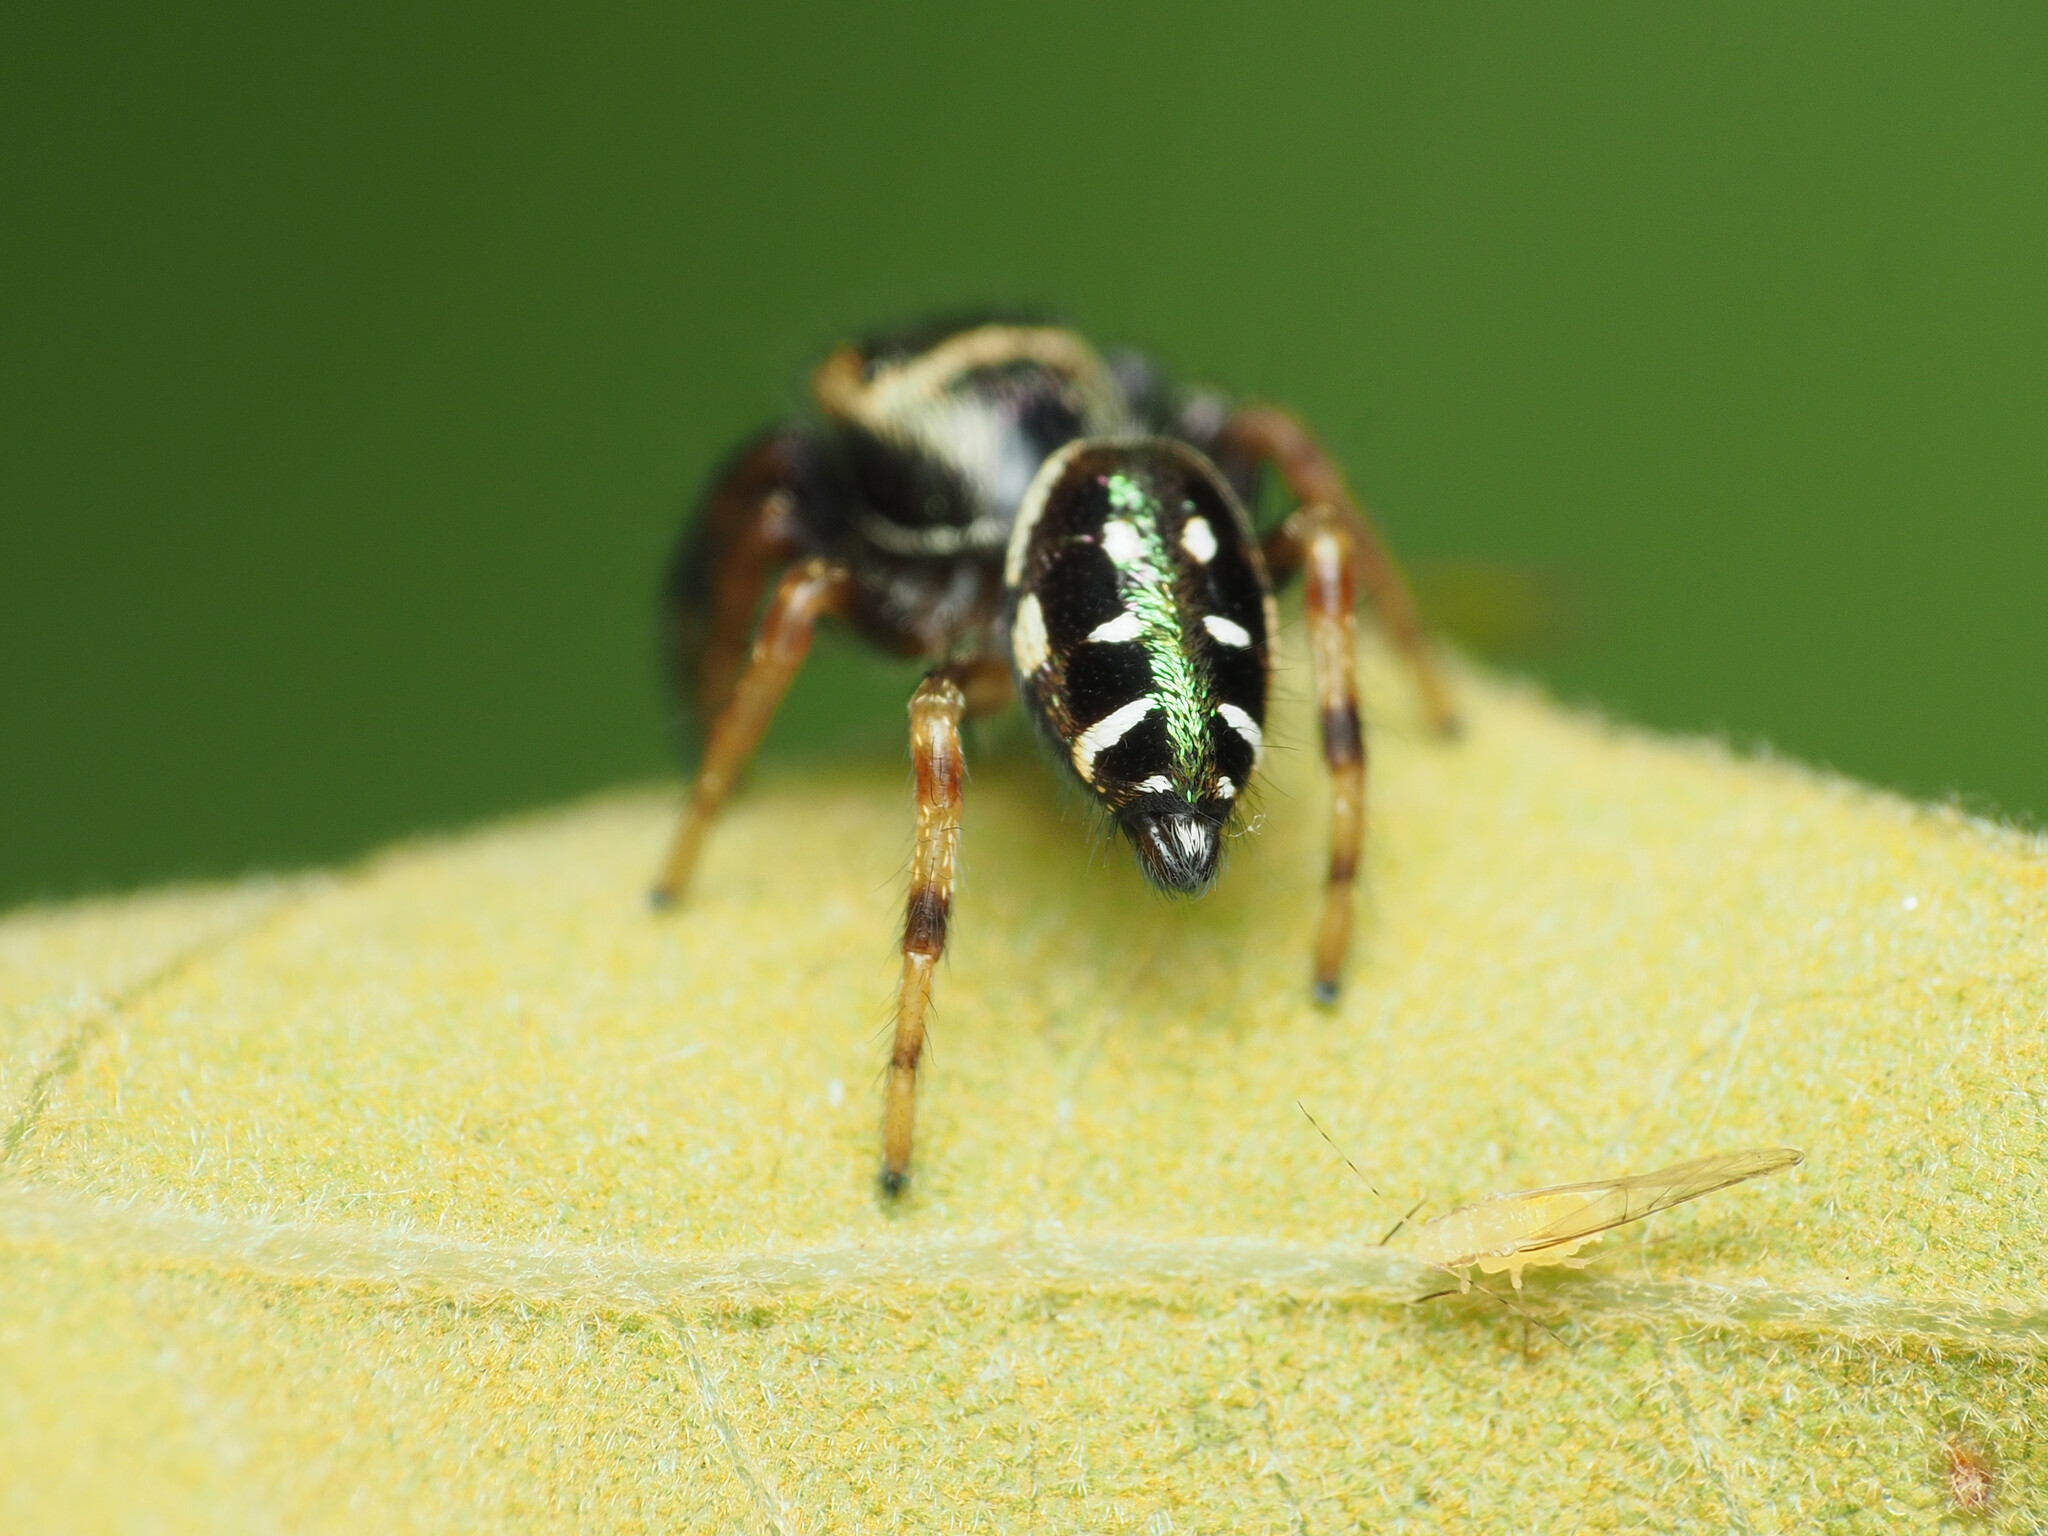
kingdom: Animalia
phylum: Arthropoda
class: Arachnida
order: Araneae
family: Salticidae
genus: Paraphidippus
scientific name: Paraphidippus aurantius
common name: Jumping spiders
